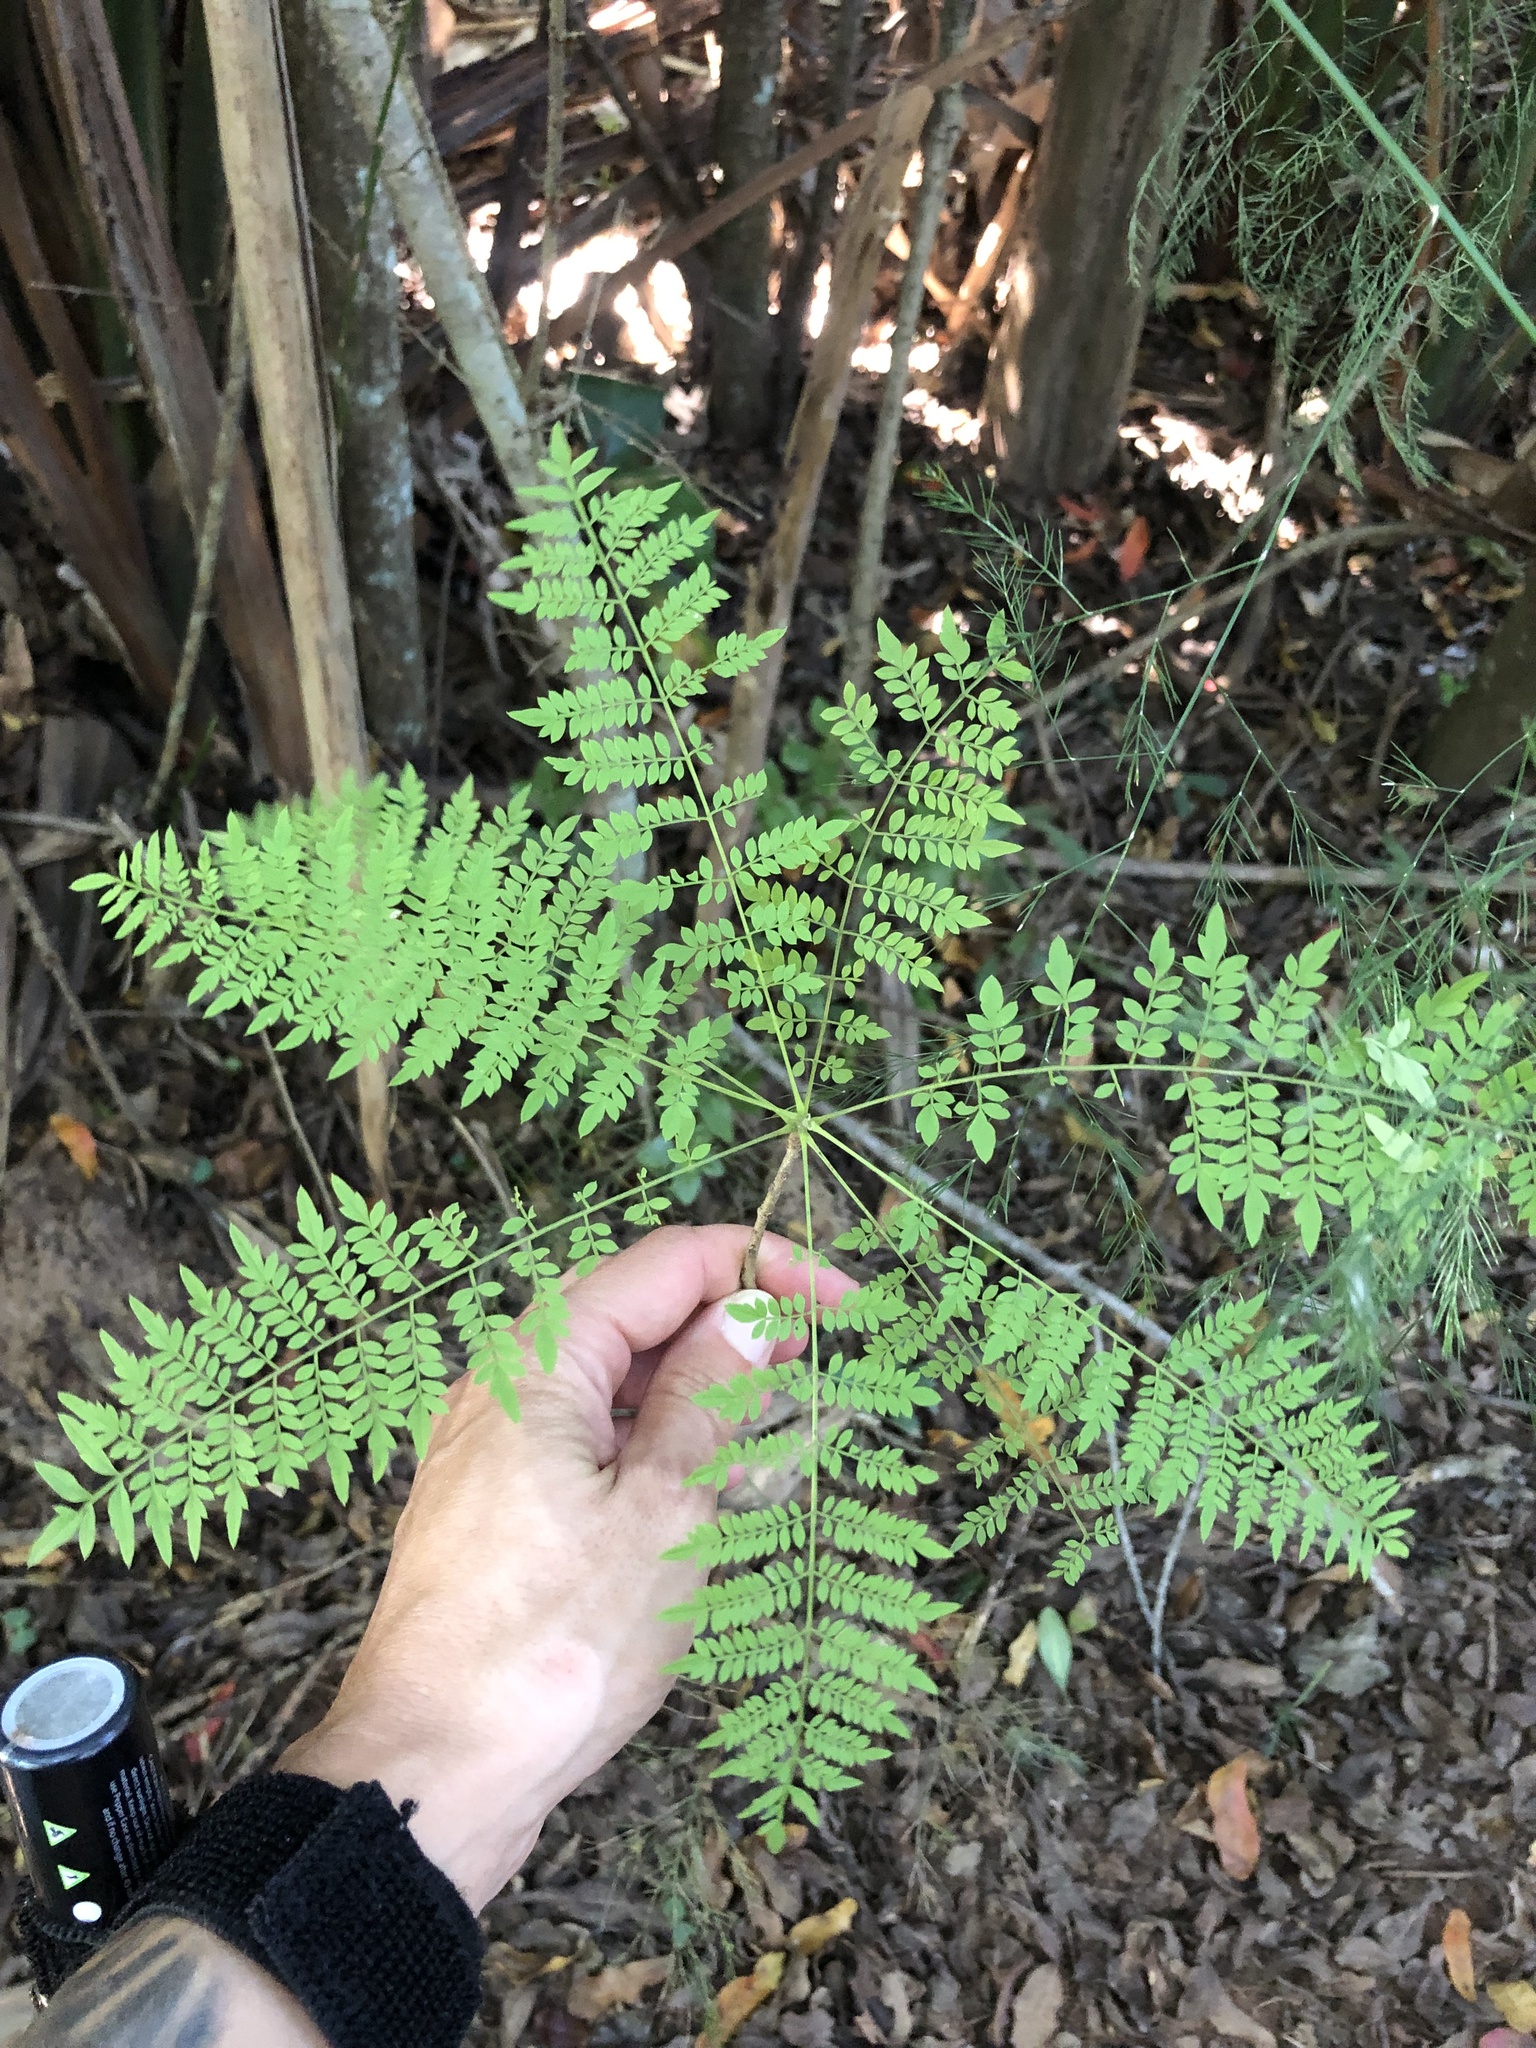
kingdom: Plantae
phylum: Tracheophyta
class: Magnoliopsida
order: Lamiales
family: Bignoniaceae
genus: Jacaranda
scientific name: Jacaranda mimosifolia
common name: Black poui
